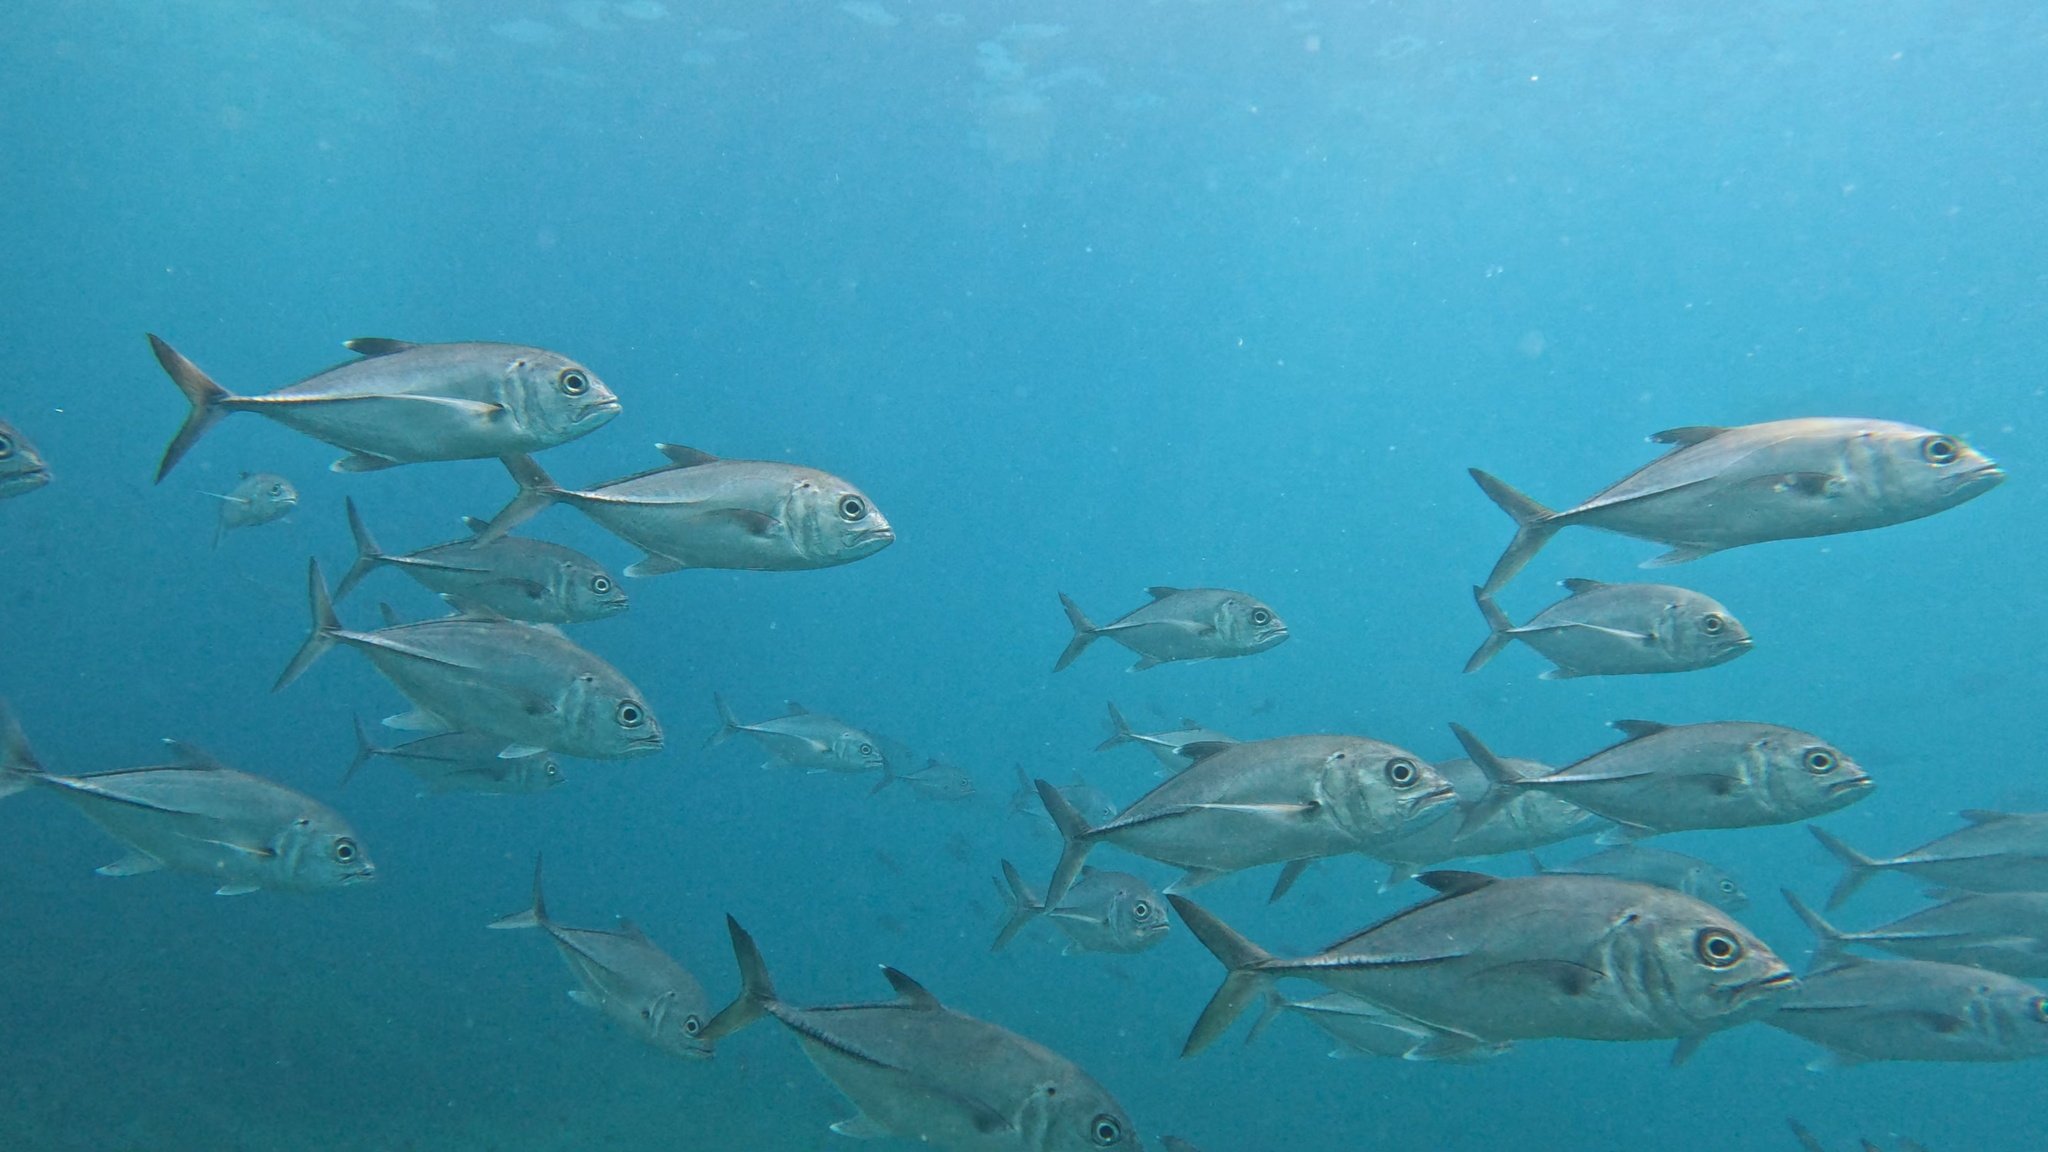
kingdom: Animalia
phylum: Chordata
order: Perciformes
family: Carangidae
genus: Caranx
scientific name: Caranx sexfasciatus
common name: Bigeye trevally
